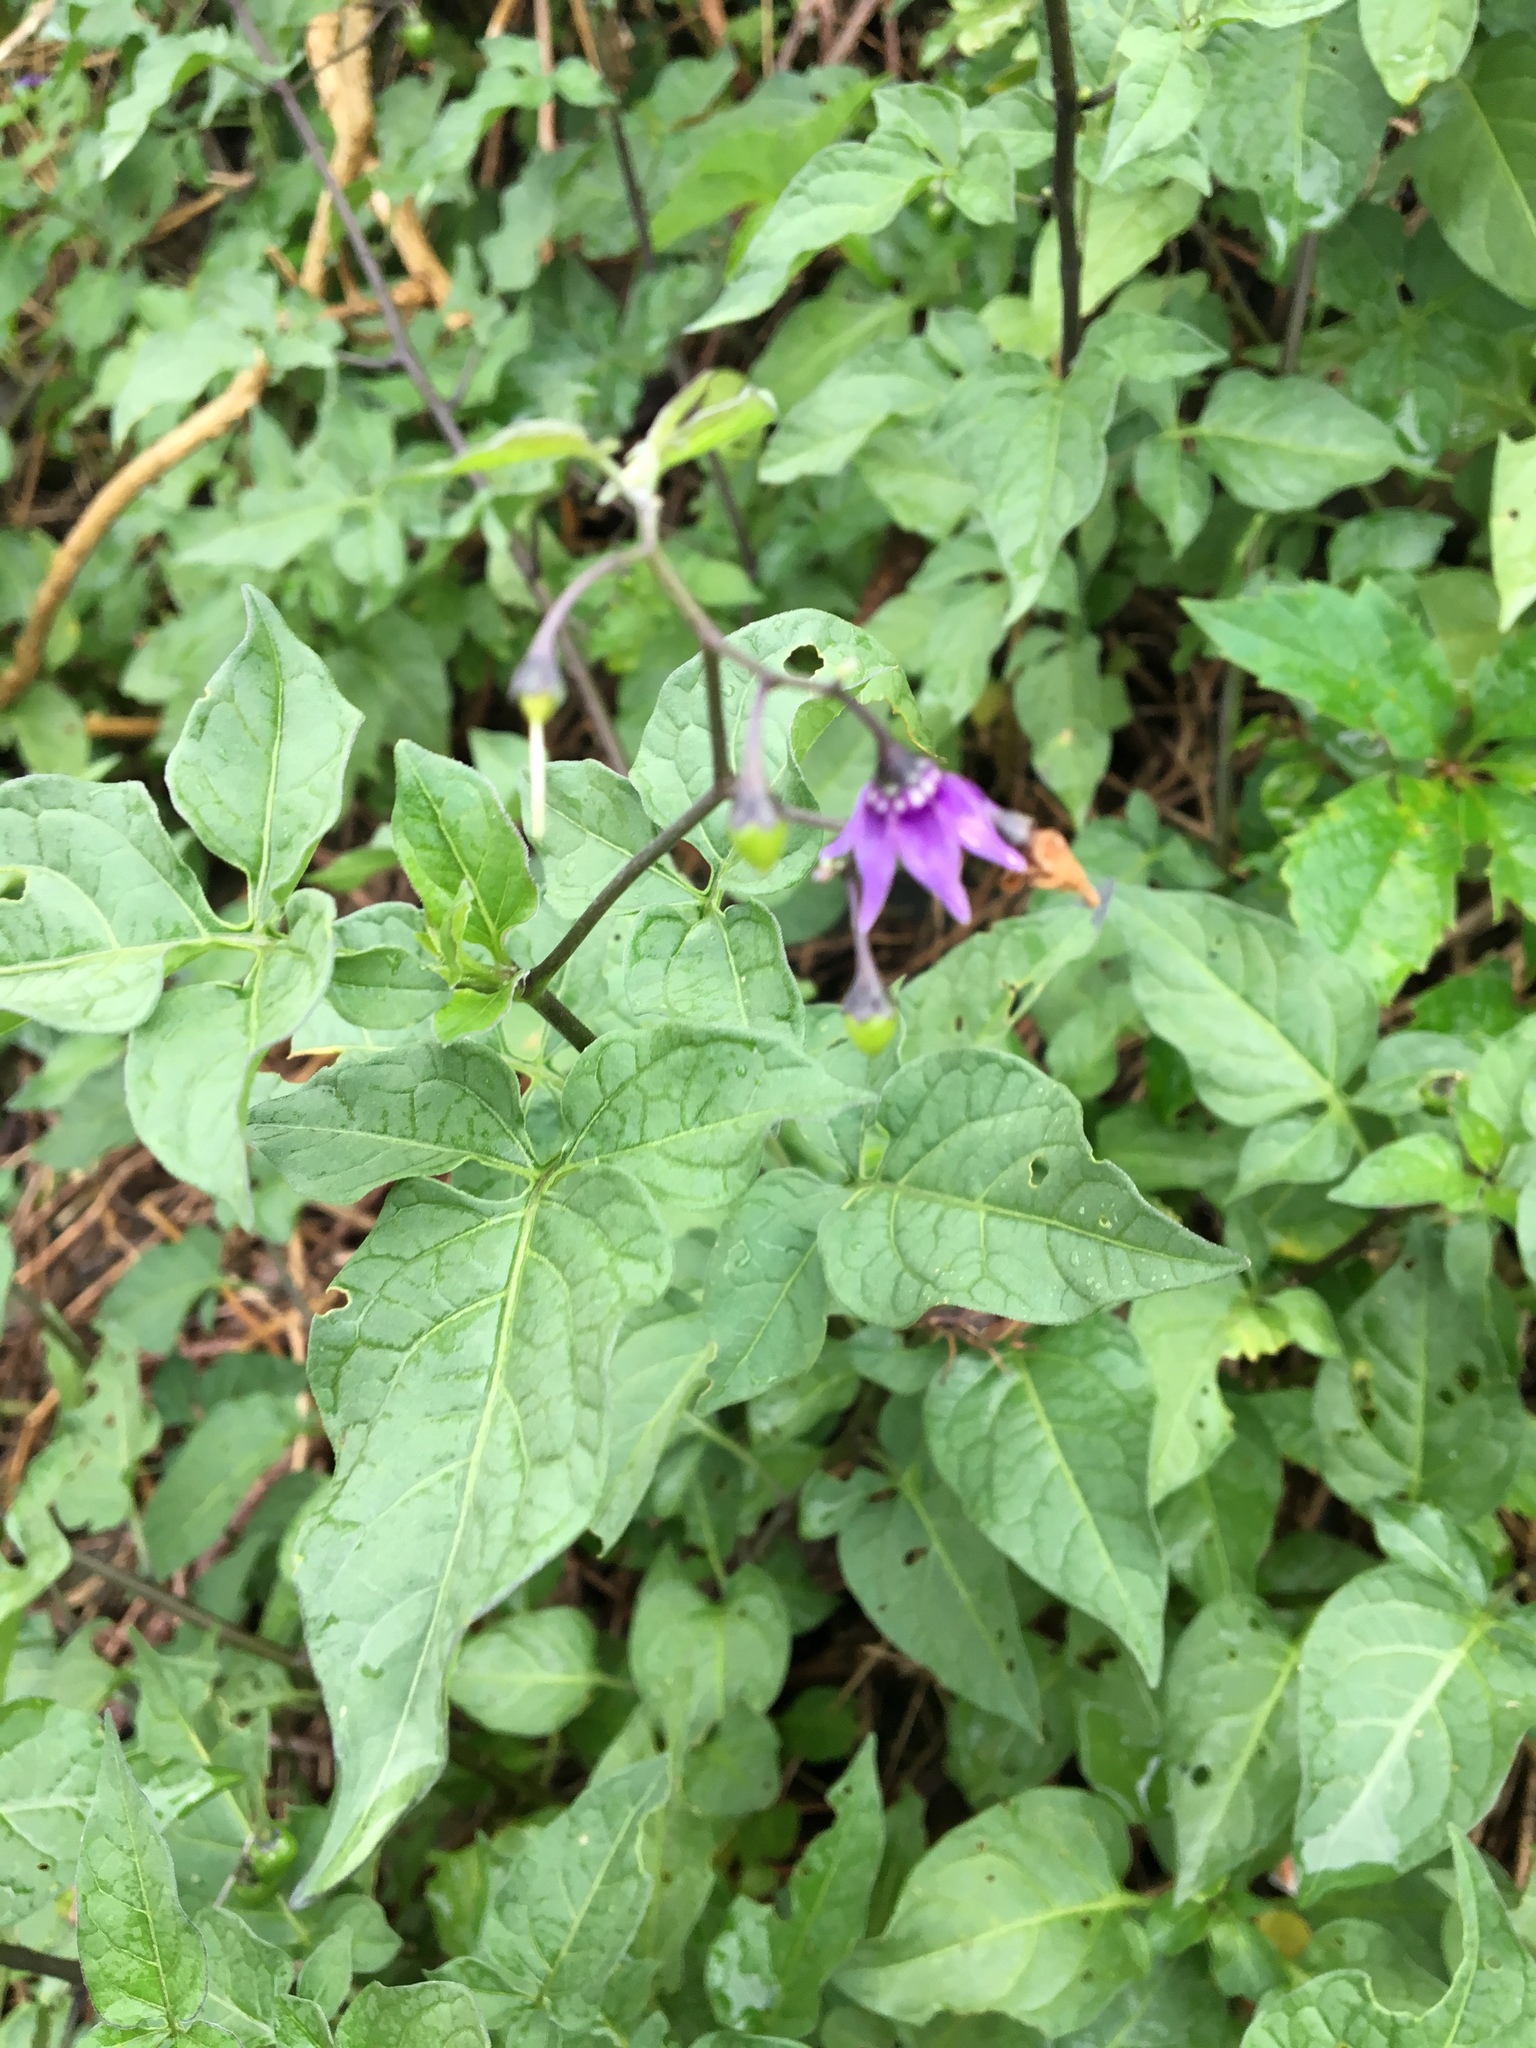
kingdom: Plantae
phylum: Tracheophyta
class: Magnoliopsida
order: Solanales
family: Solanaceae
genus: Solanum
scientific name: Solanum dulcamara
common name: Climbing nightshade
